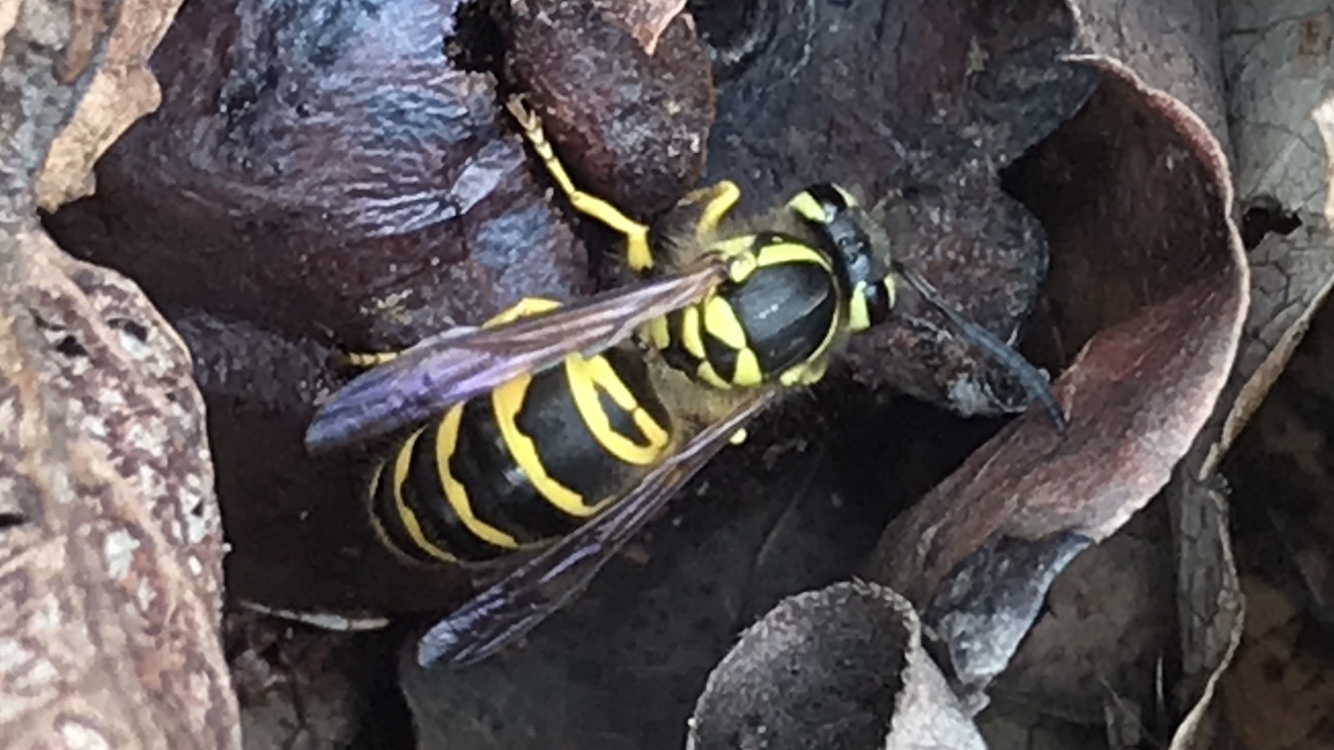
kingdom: Animalia
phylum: Arthropoda
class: Insecta
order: Hymenoptera
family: Vespidae
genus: Vespula
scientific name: Vespula maculifrons
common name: Eastern yellowjacket
